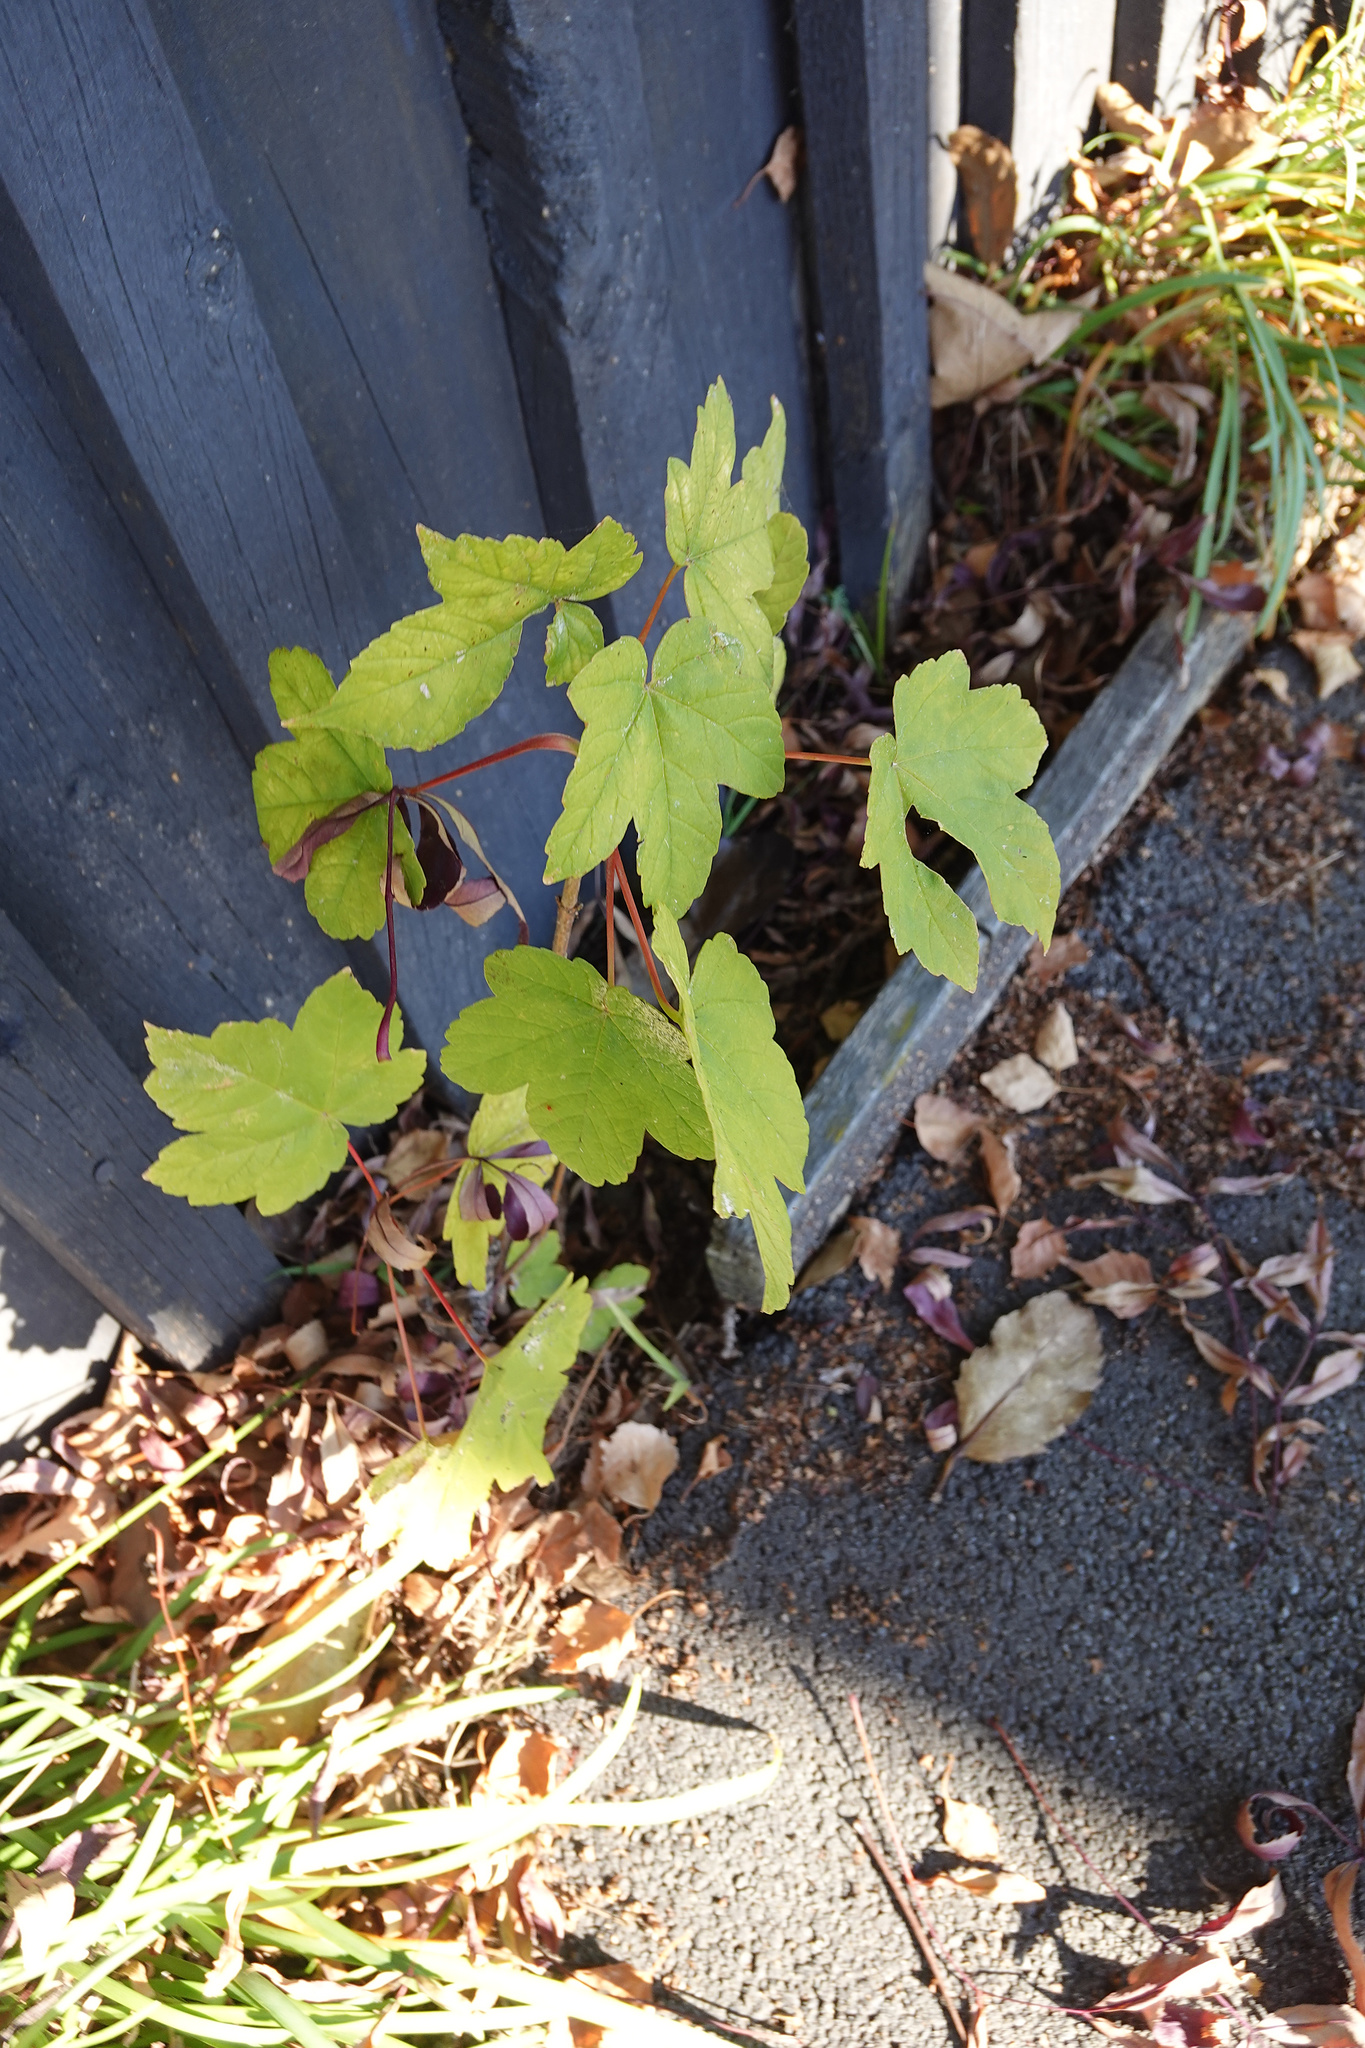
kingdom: Plantae
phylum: Tracheophyta
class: Magnoliopsida
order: Sapindales
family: Sapindaceae
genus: Acer
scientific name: Acer pseudoplatanus
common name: Sycamore
